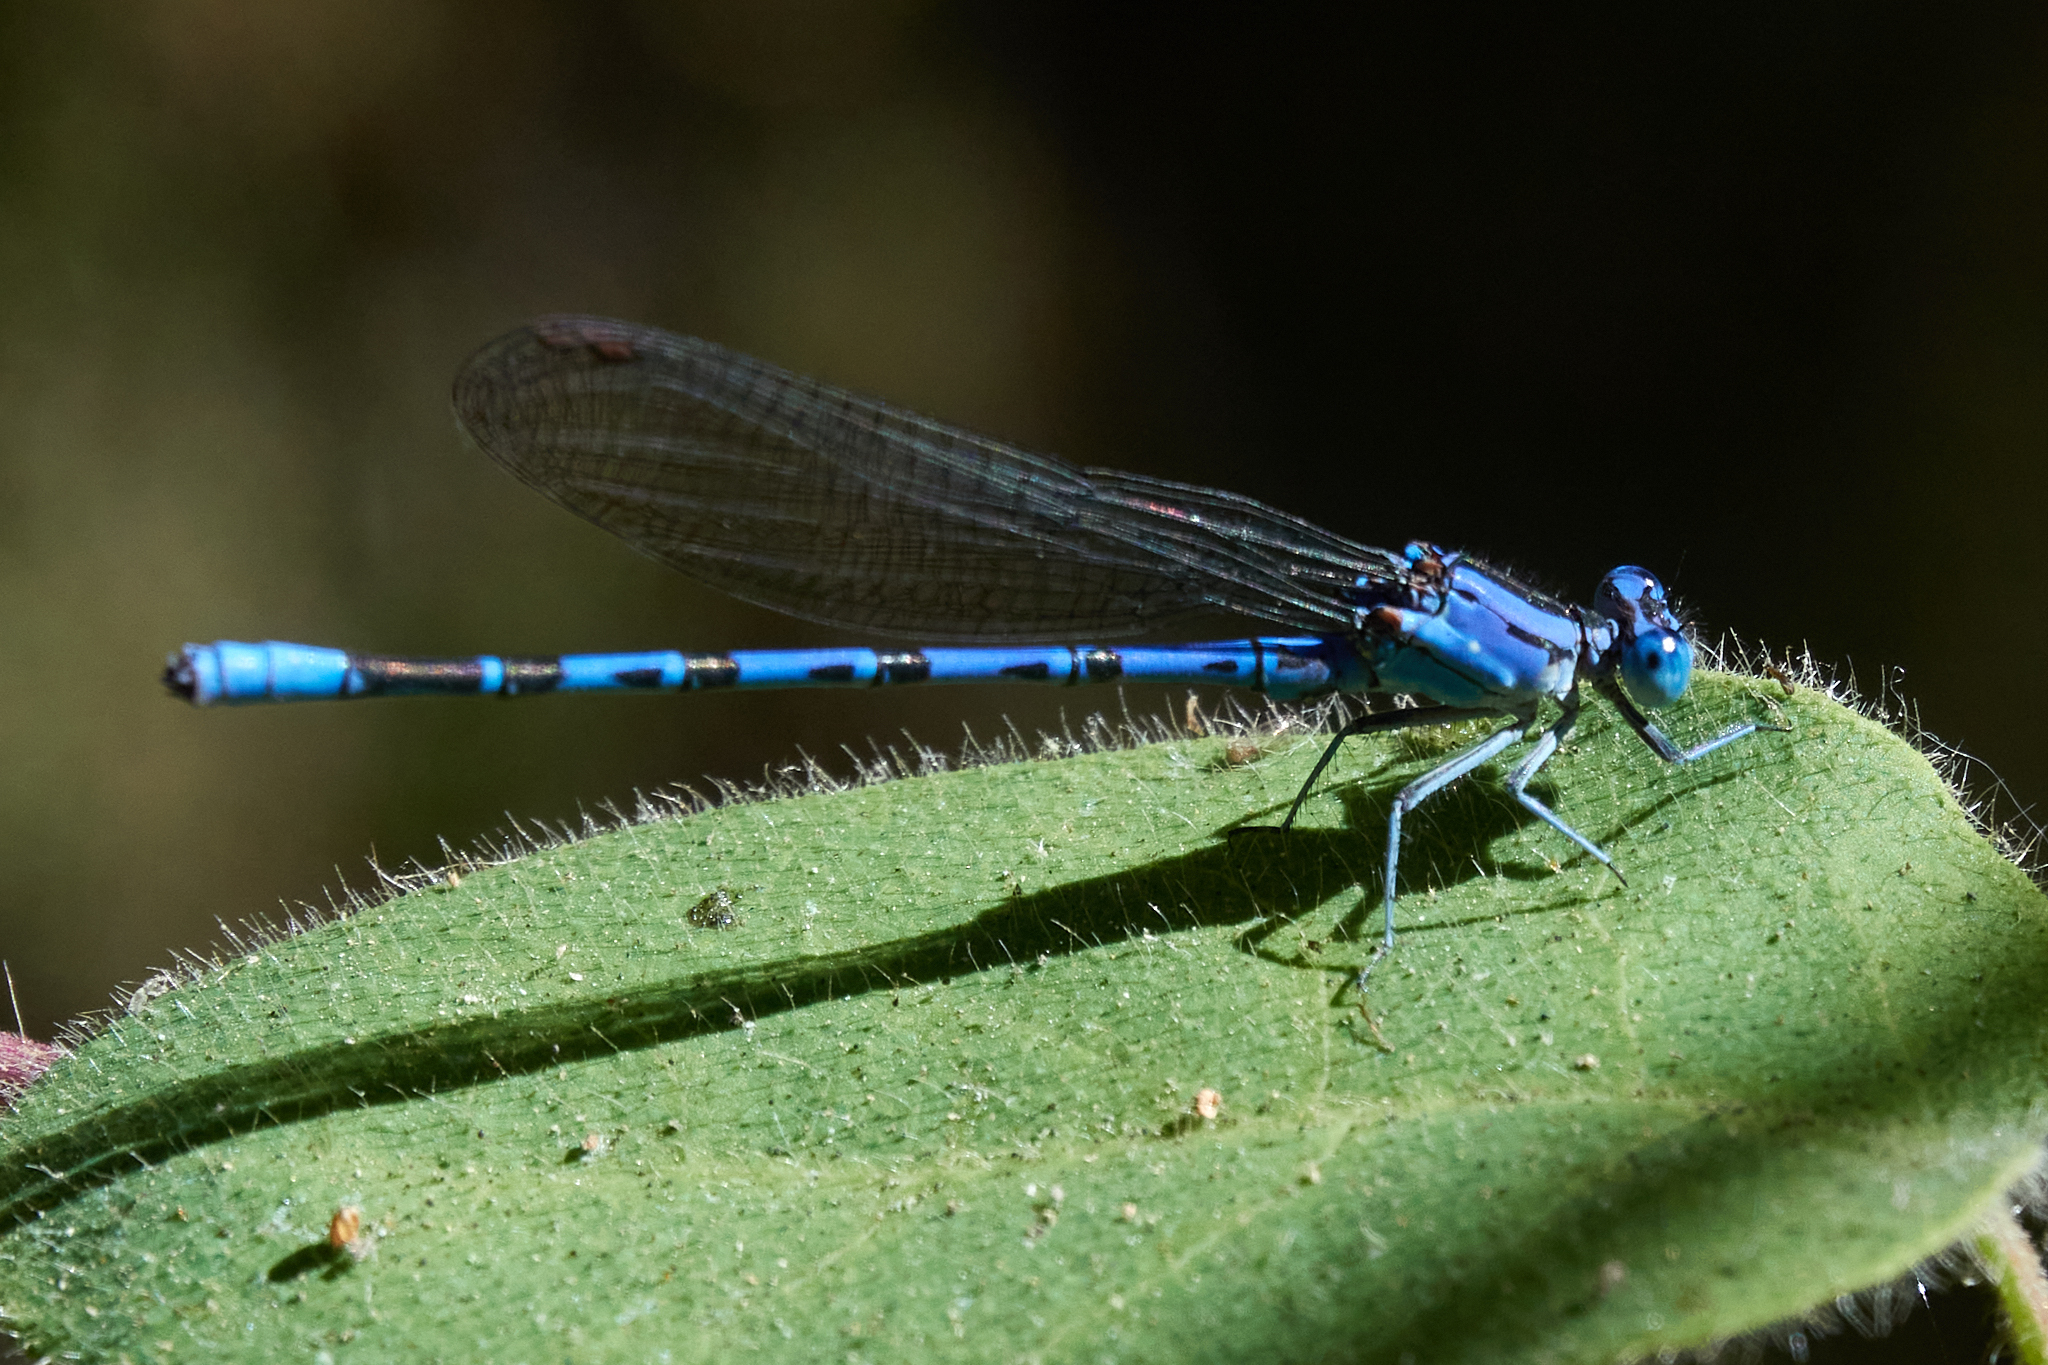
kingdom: Animalia
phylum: Arthropoda
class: Insecta
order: Odonata
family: Coenagrionidae
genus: Argia
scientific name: Argia vivida
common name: Vivid dancer
